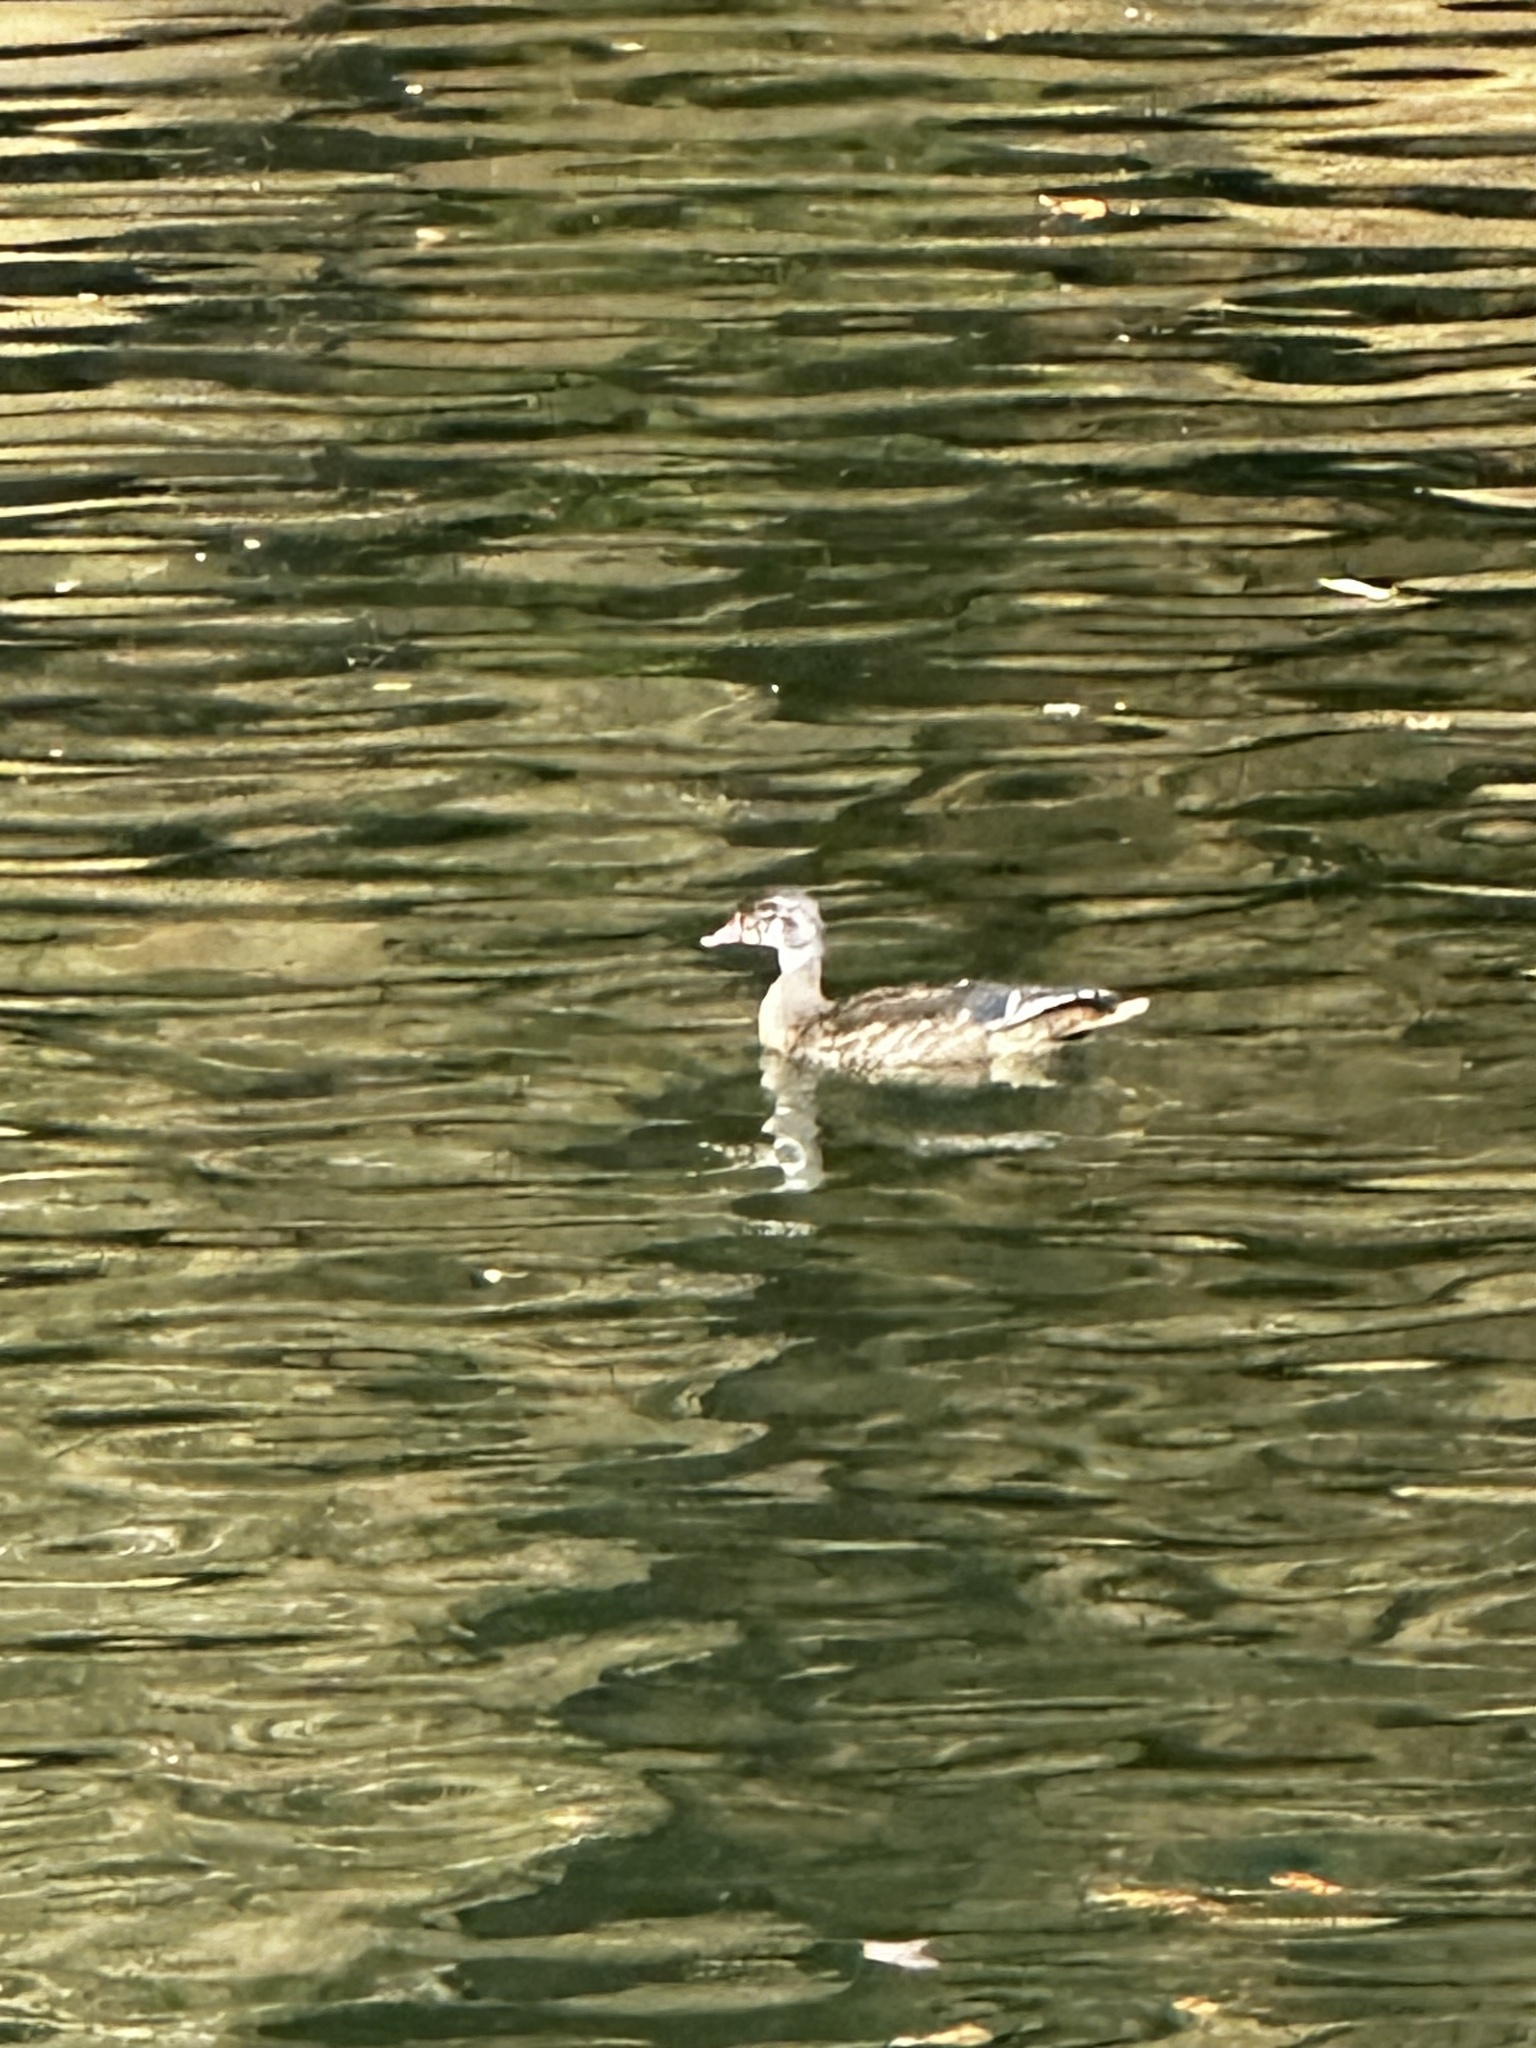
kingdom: Animalia
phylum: Chordata
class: Aves
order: Anseriformes
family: Anatidae
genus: Aix
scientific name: Aix sponsa
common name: Wood duck
